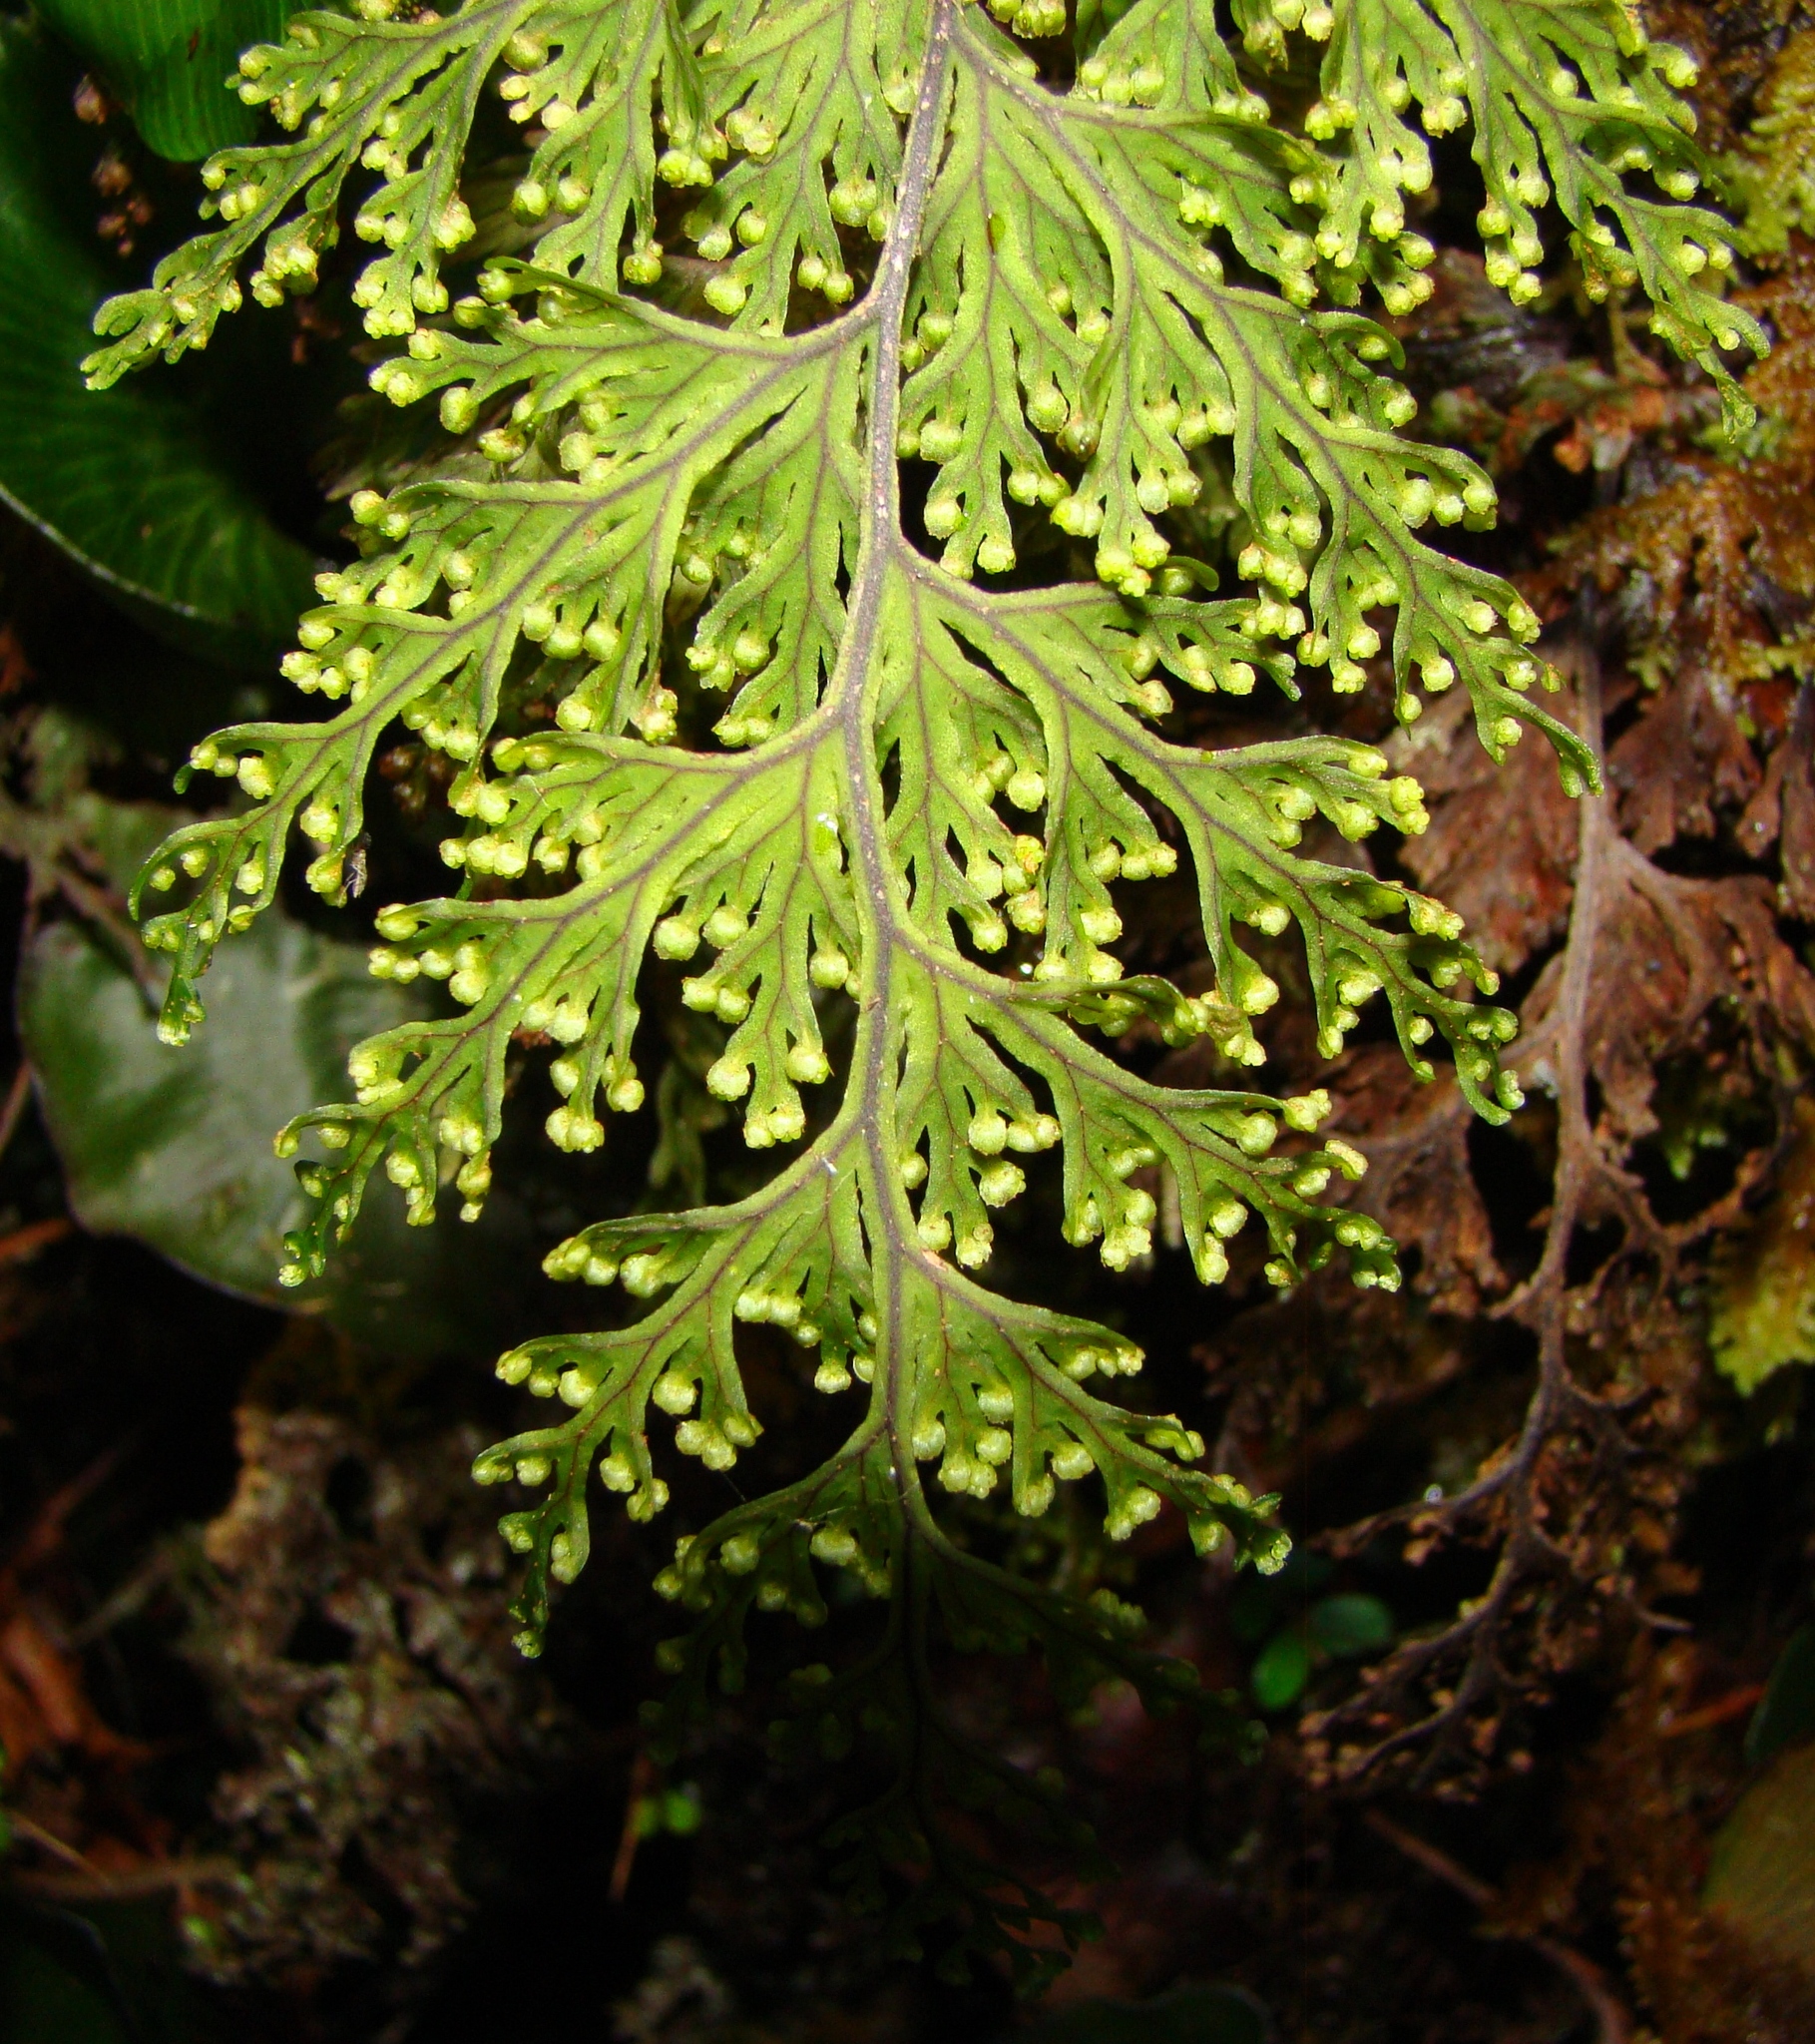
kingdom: Plantae
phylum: Tracheophyta
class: Polypodiopsida
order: Hymenophyllales
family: Hymenophyllaceae
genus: Hymenophyllum
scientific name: Hymenophyllum scabrum
